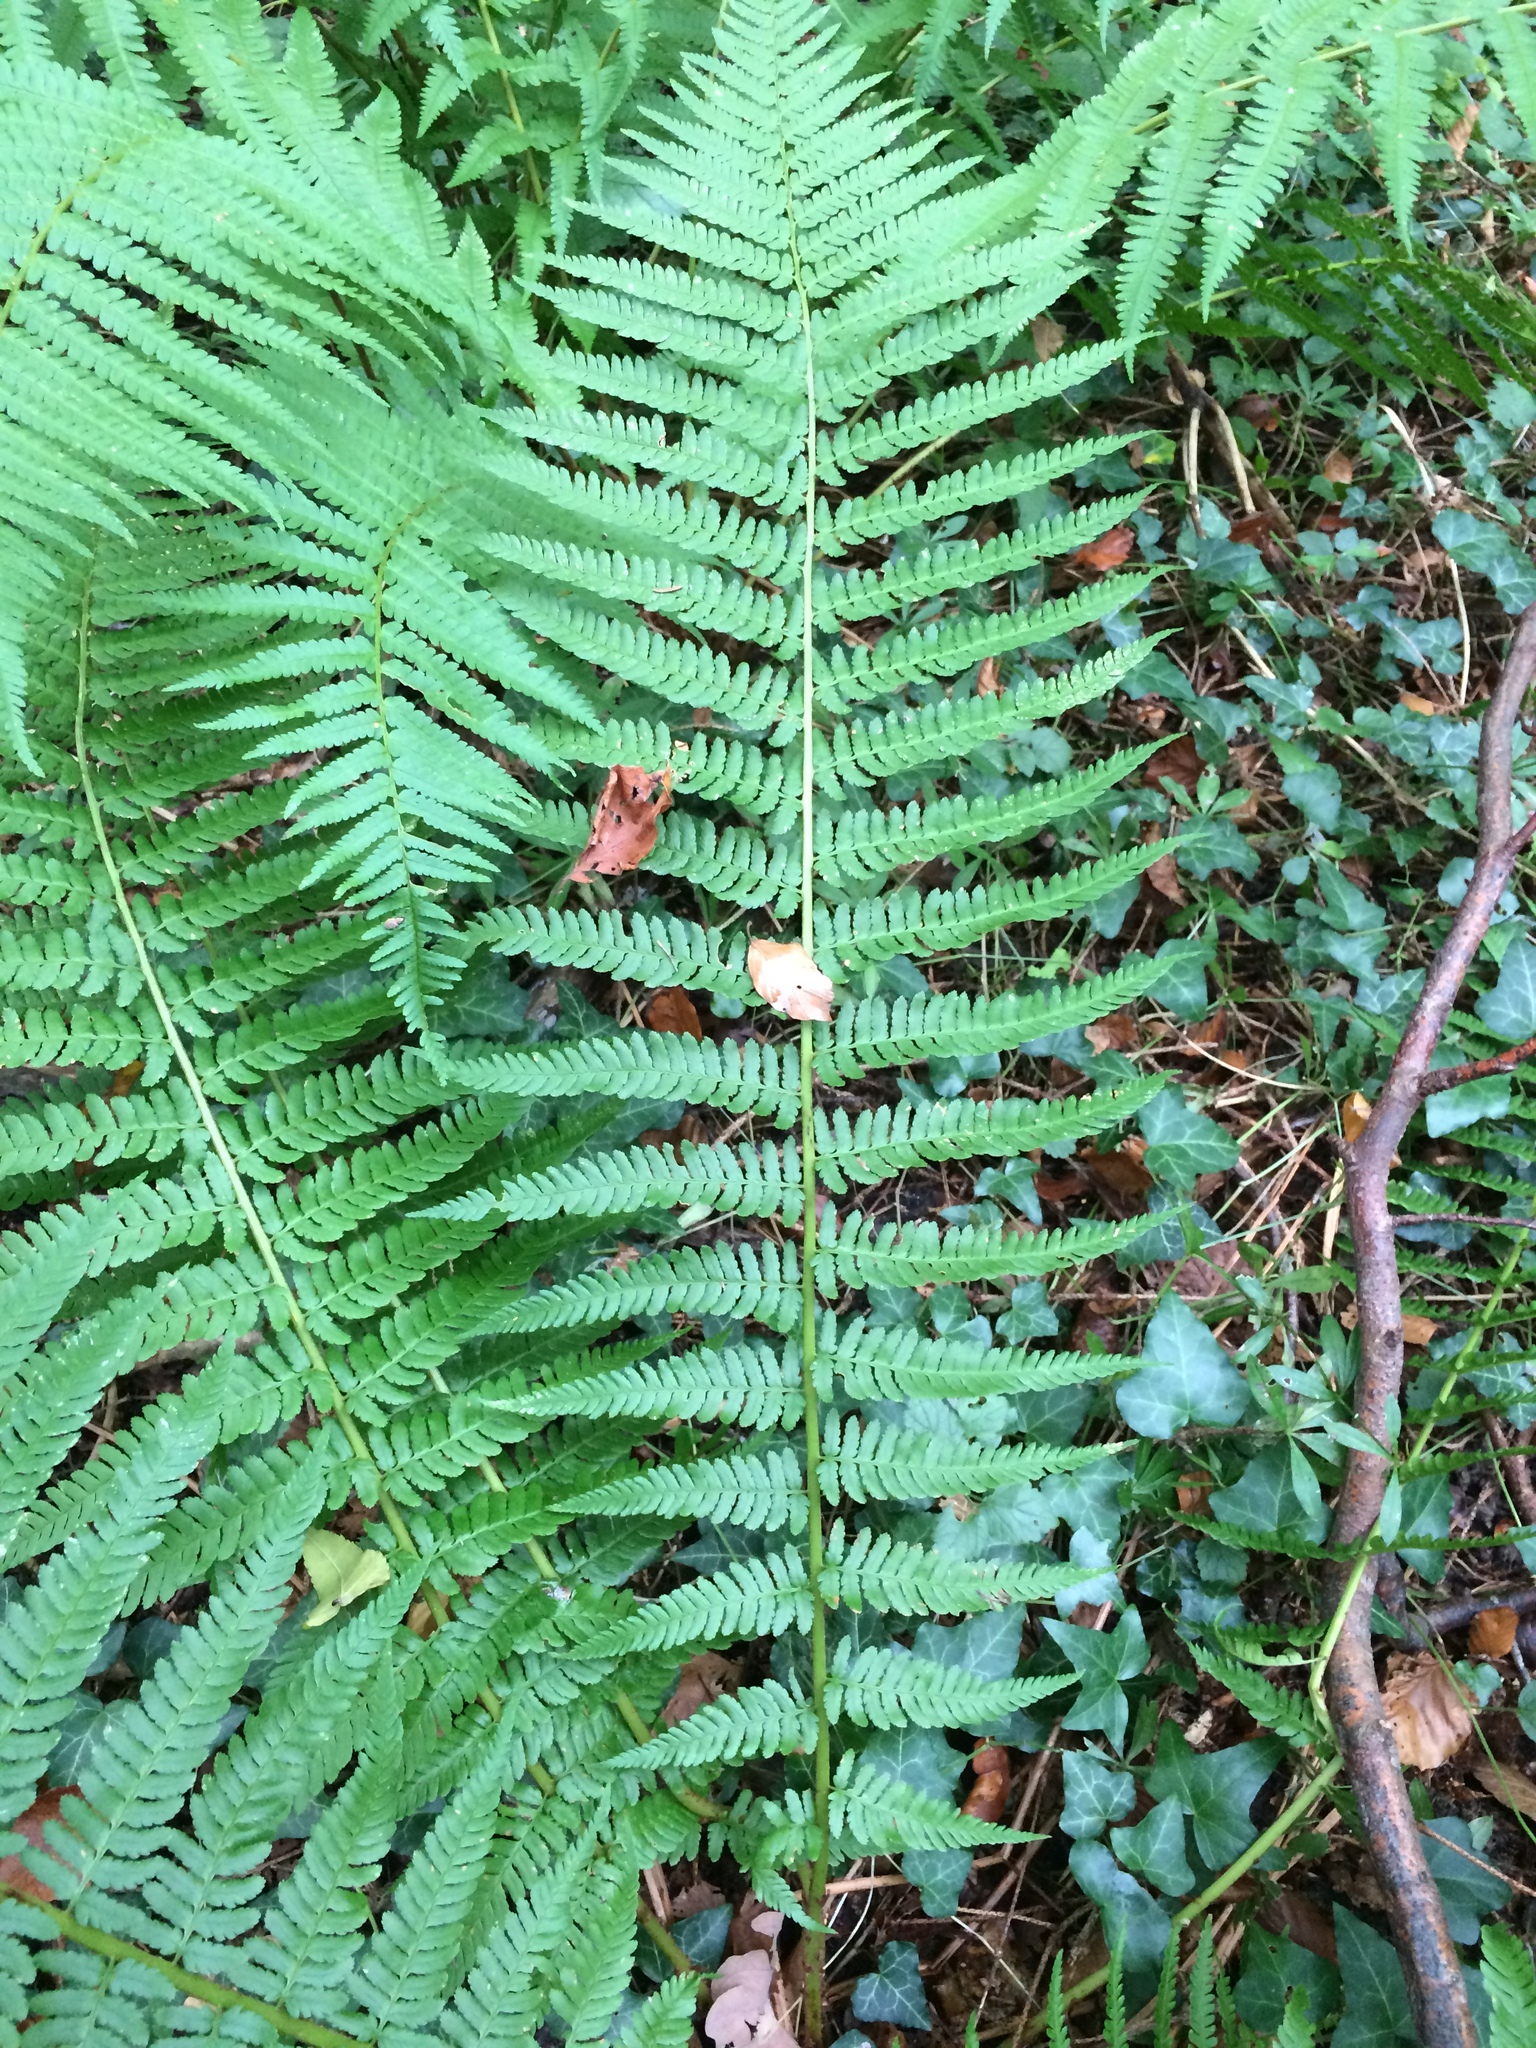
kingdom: Plantae
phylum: Tracheophyta
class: Polypodiopsida
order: Polypodiales
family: Dryopteridaceae
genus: Dryopteris
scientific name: Dryopteris filix-mas
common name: Male fern
